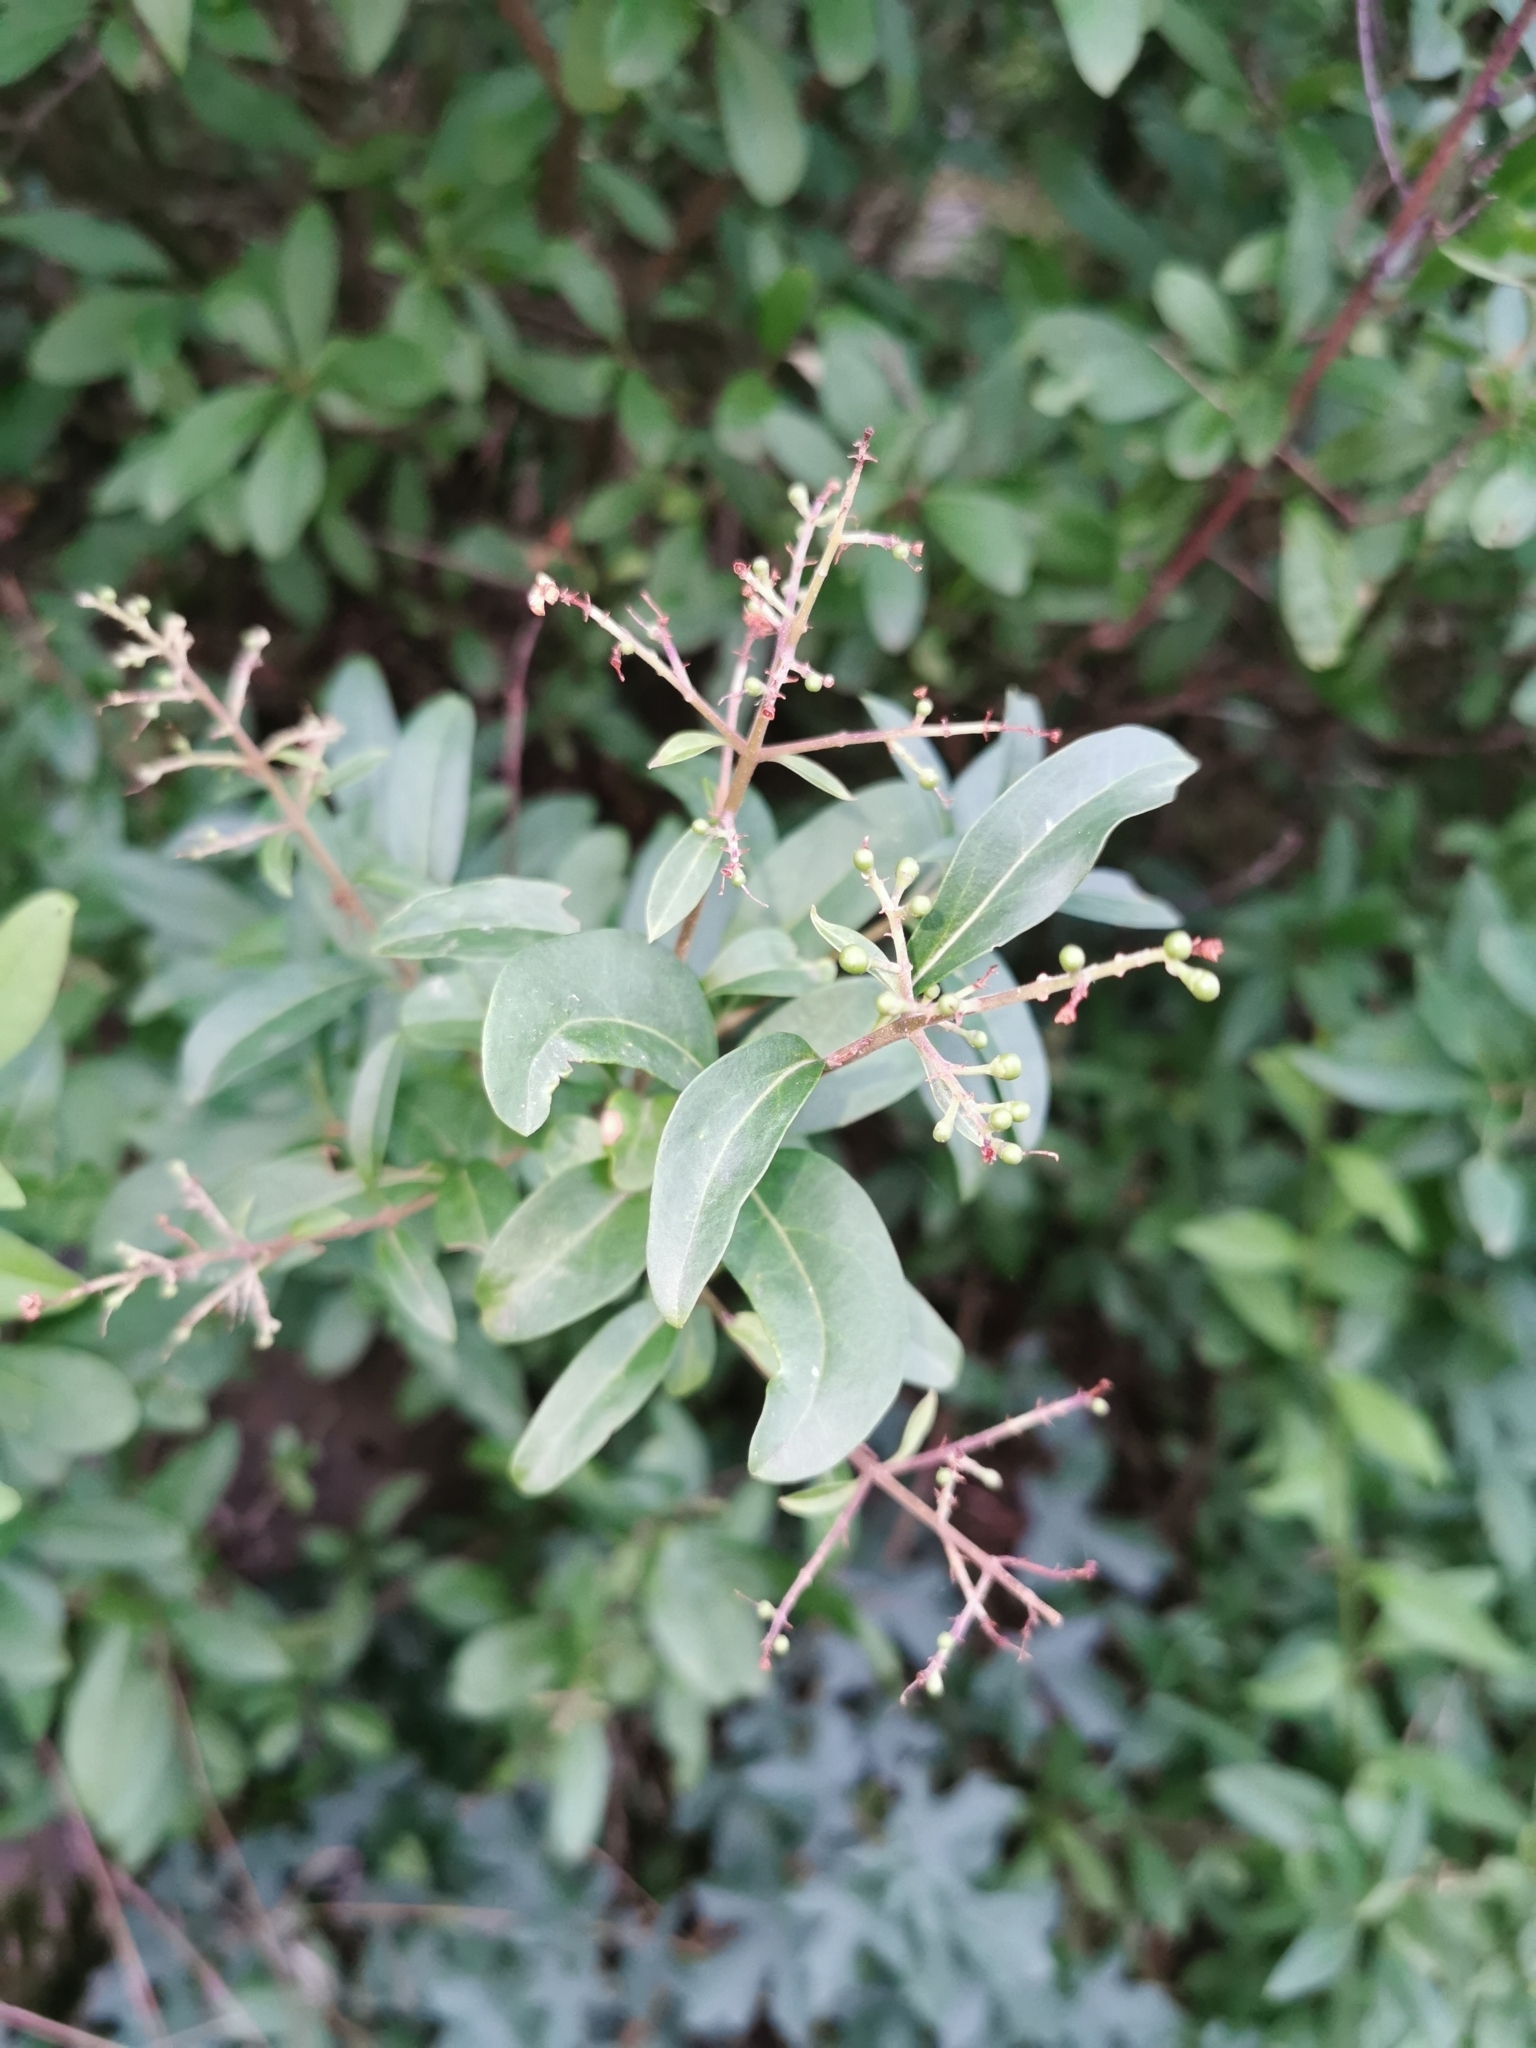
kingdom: Plantae
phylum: Tracheophyta
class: Magnoliopsida
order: Lamiales
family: Oleaceae
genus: Ligustrum
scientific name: Ligustrum vulgare
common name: Wild privet
